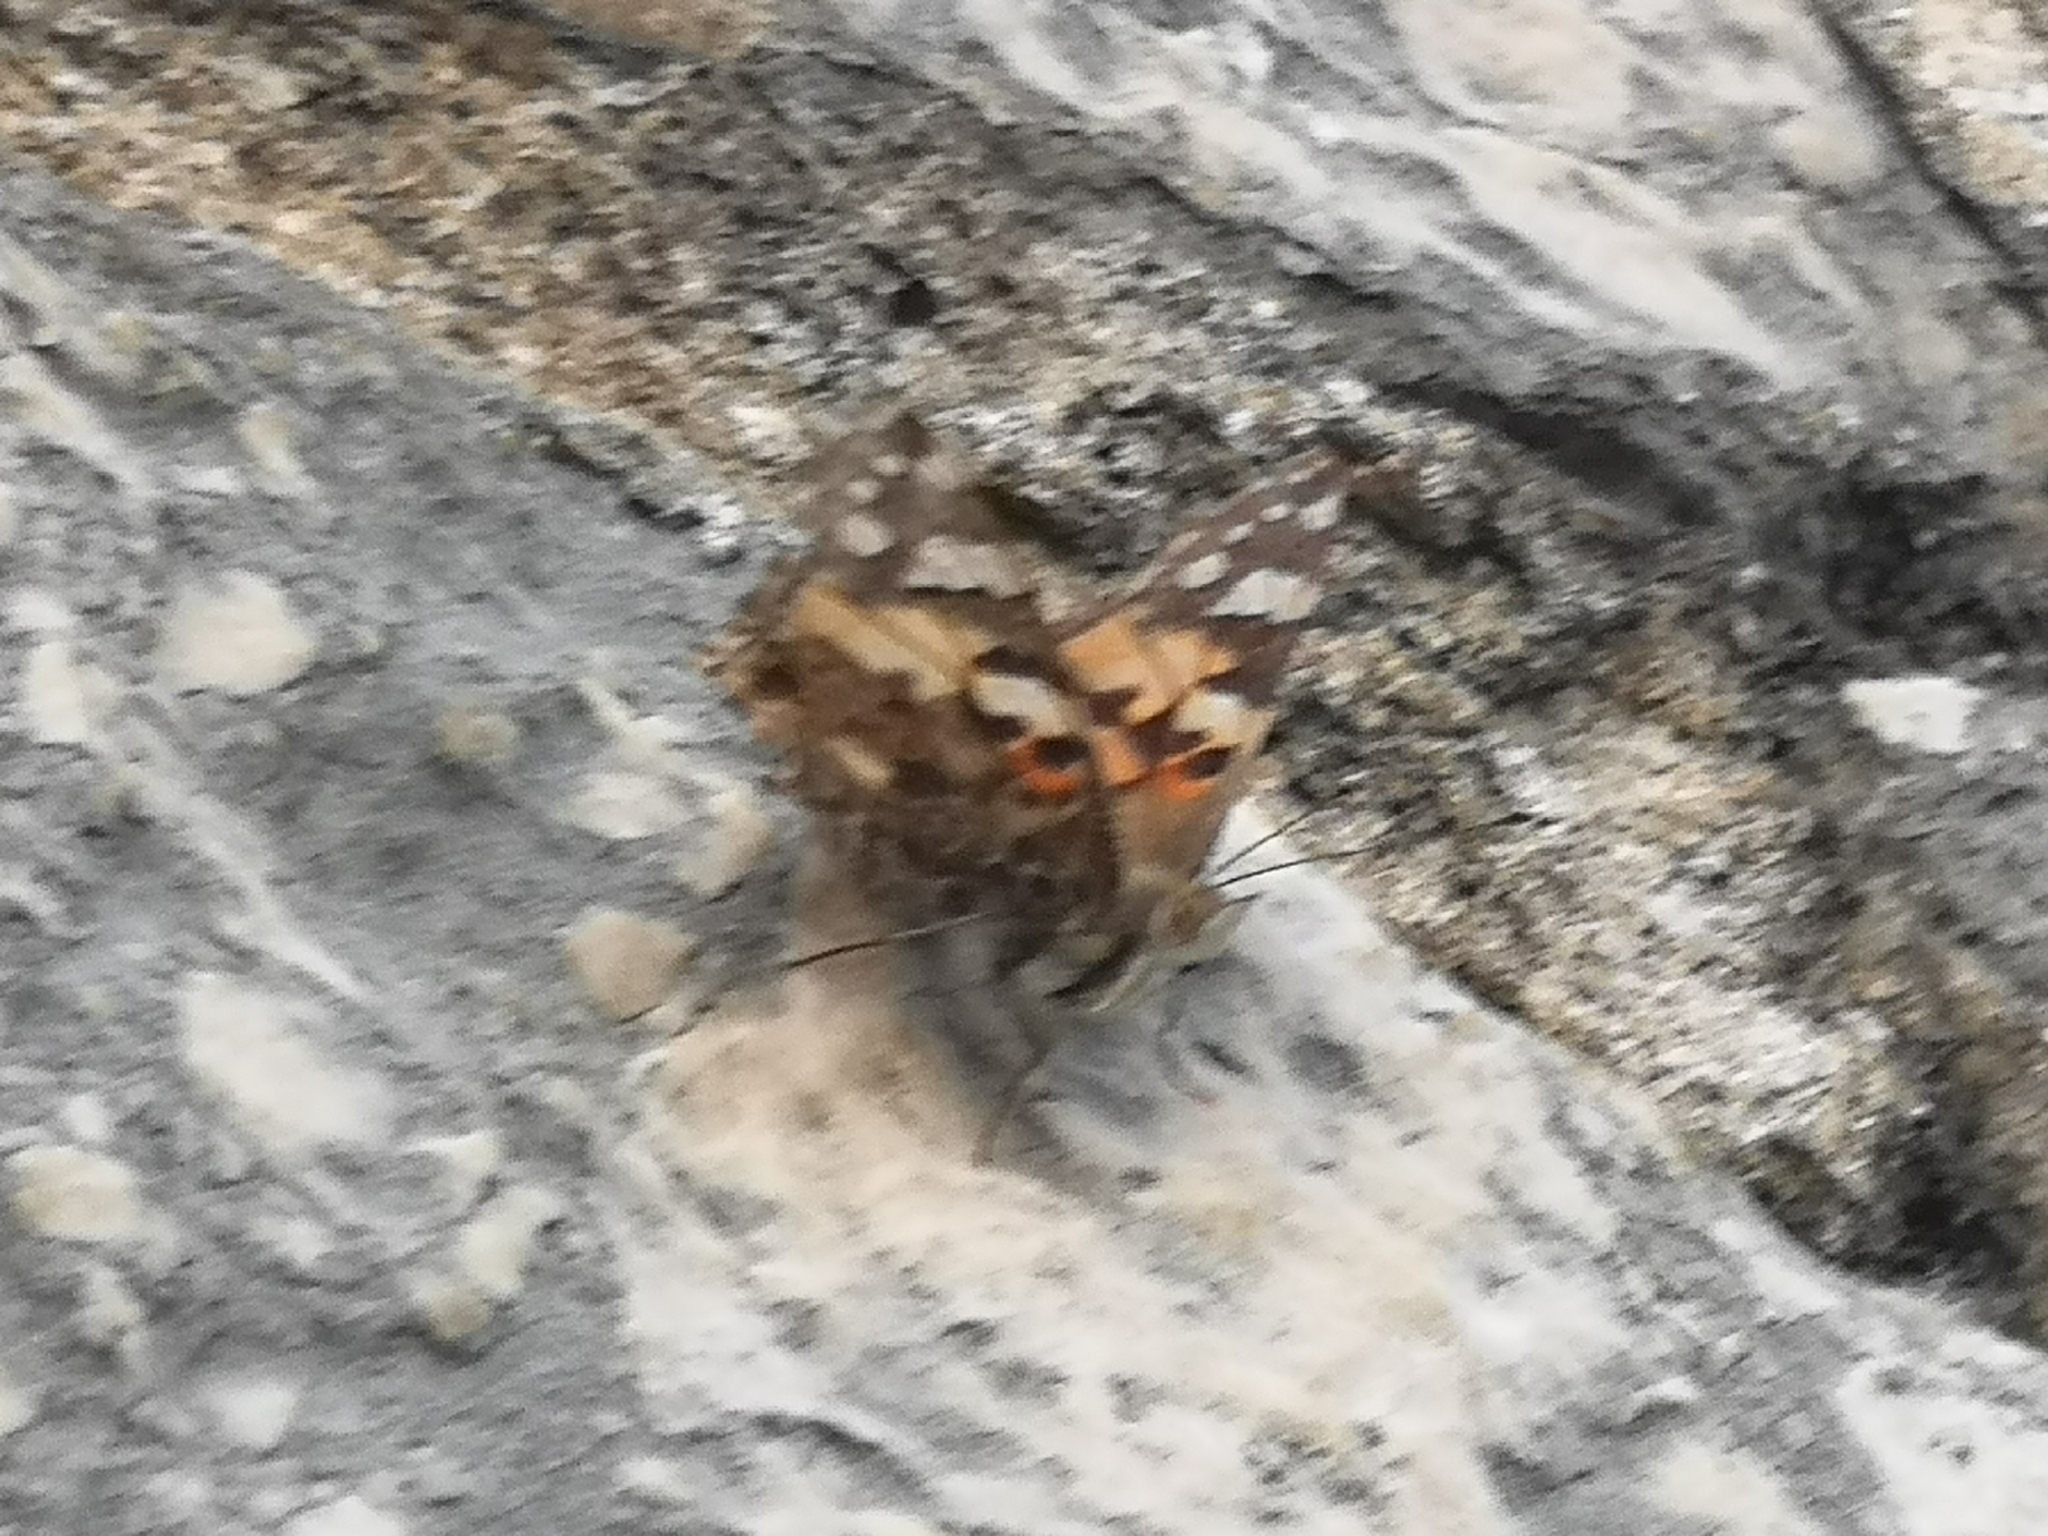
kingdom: Animalia
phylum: Arthropoda
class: Insecta
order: Lepidoptera
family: Nymphalidae
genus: Vanessa
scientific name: Vanessa cardui
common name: Painted lady
